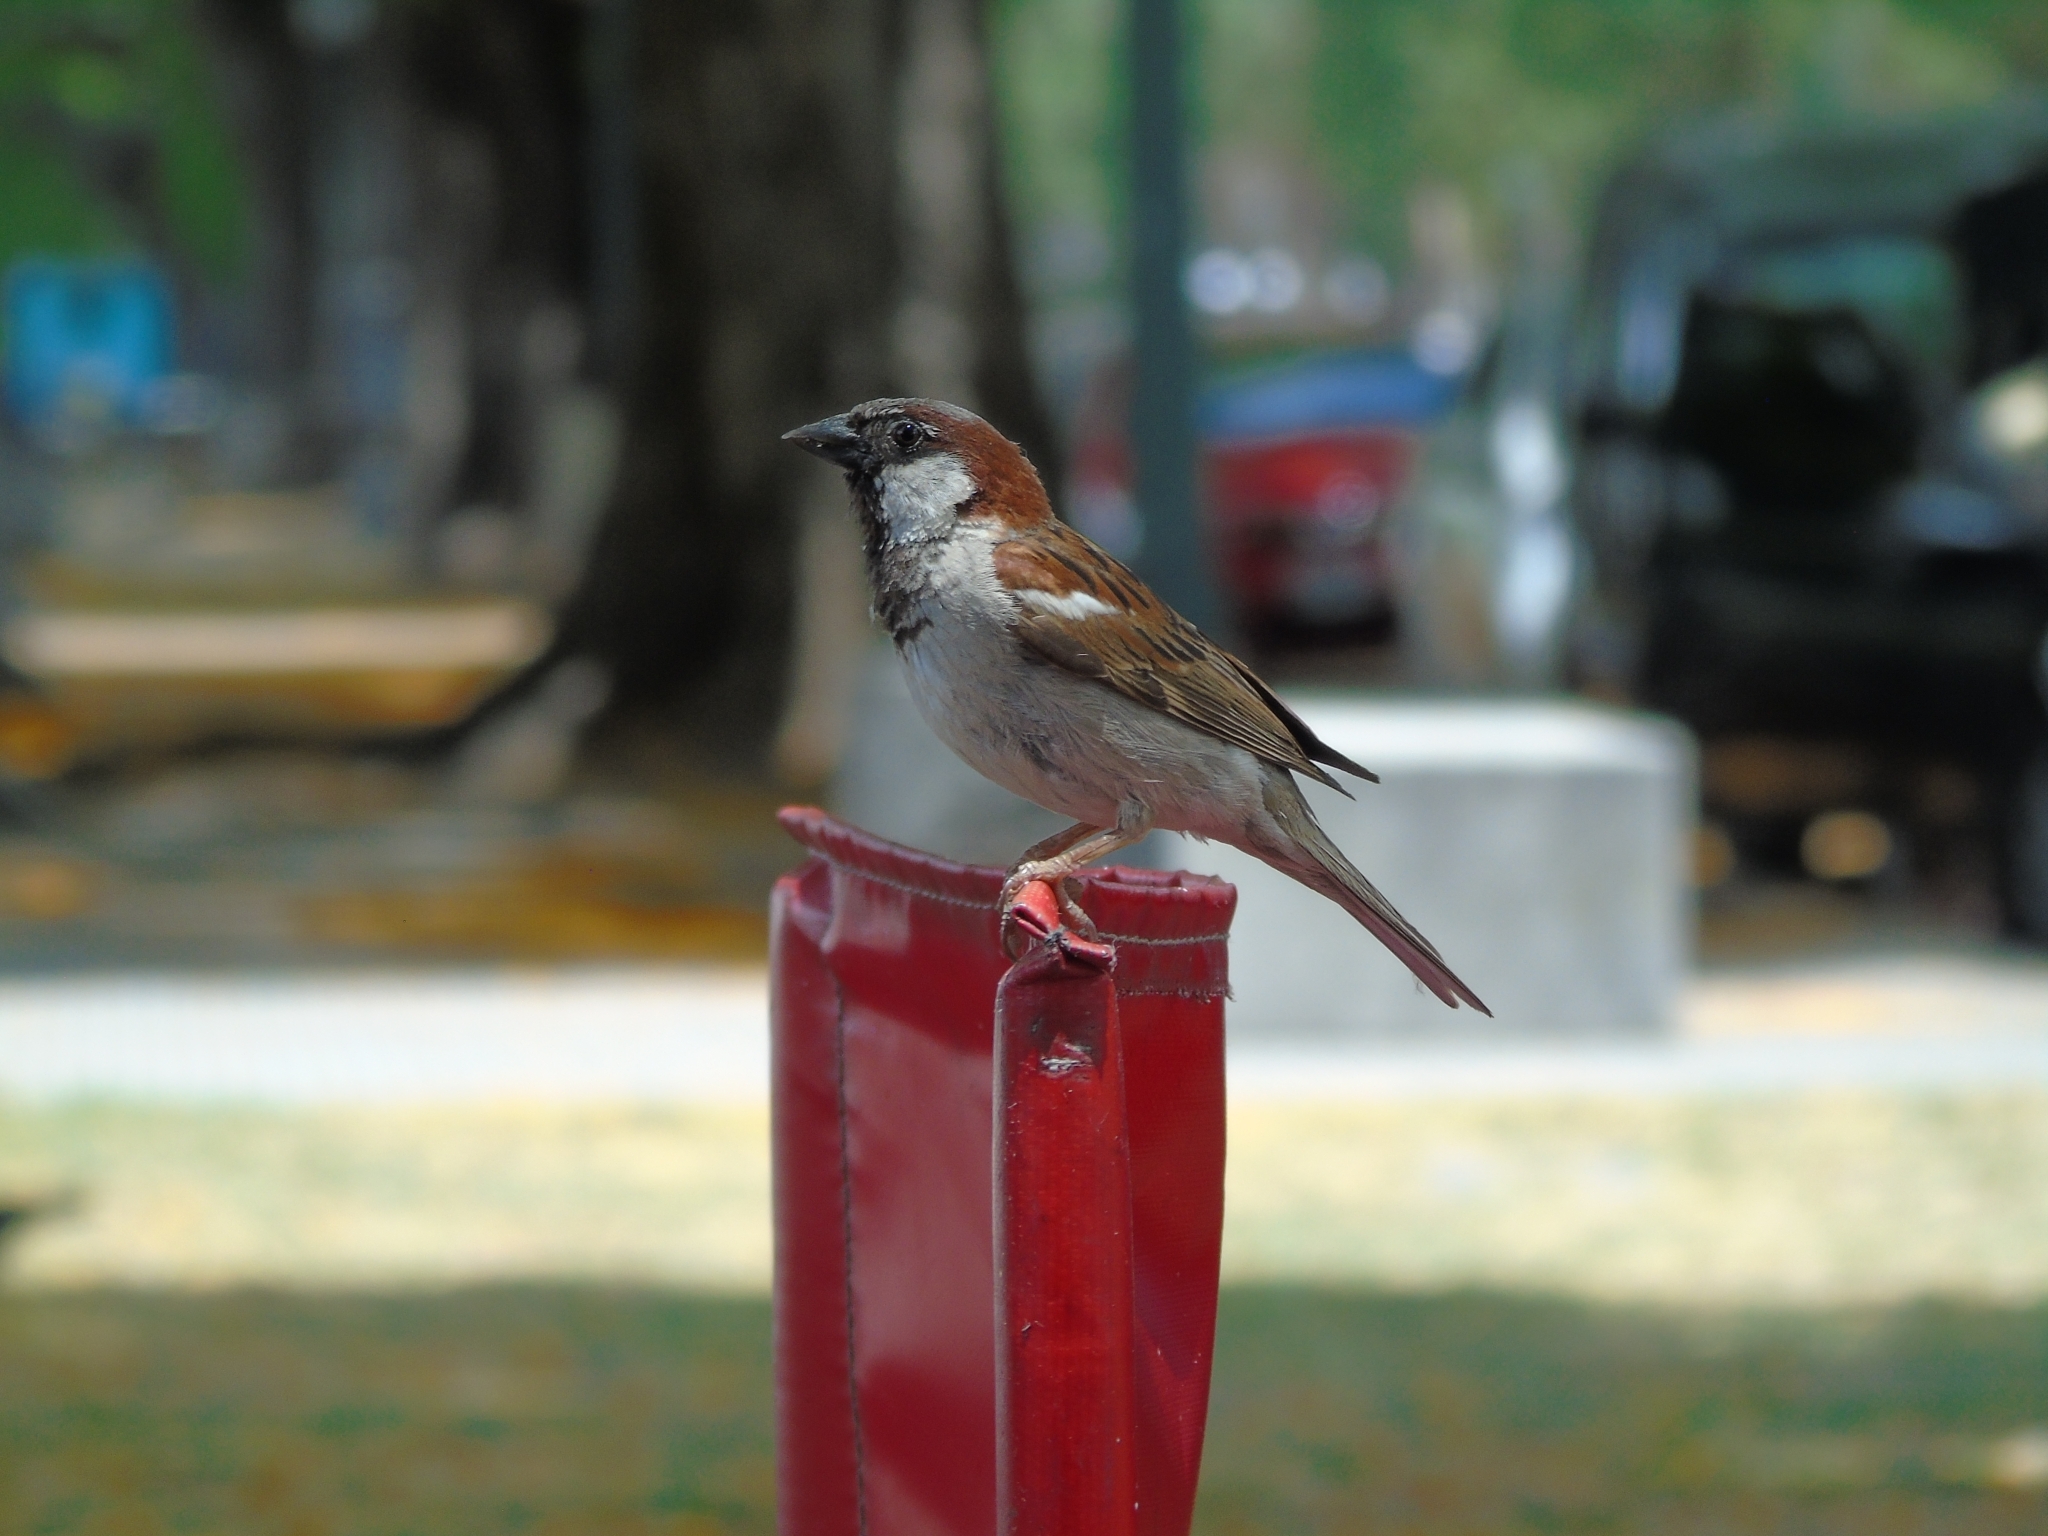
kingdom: Animalia
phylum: Chordata
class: Aves
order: Passeriformes
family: Passeridae
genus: Passer
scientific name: Passer domesticus
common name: House sparrow
